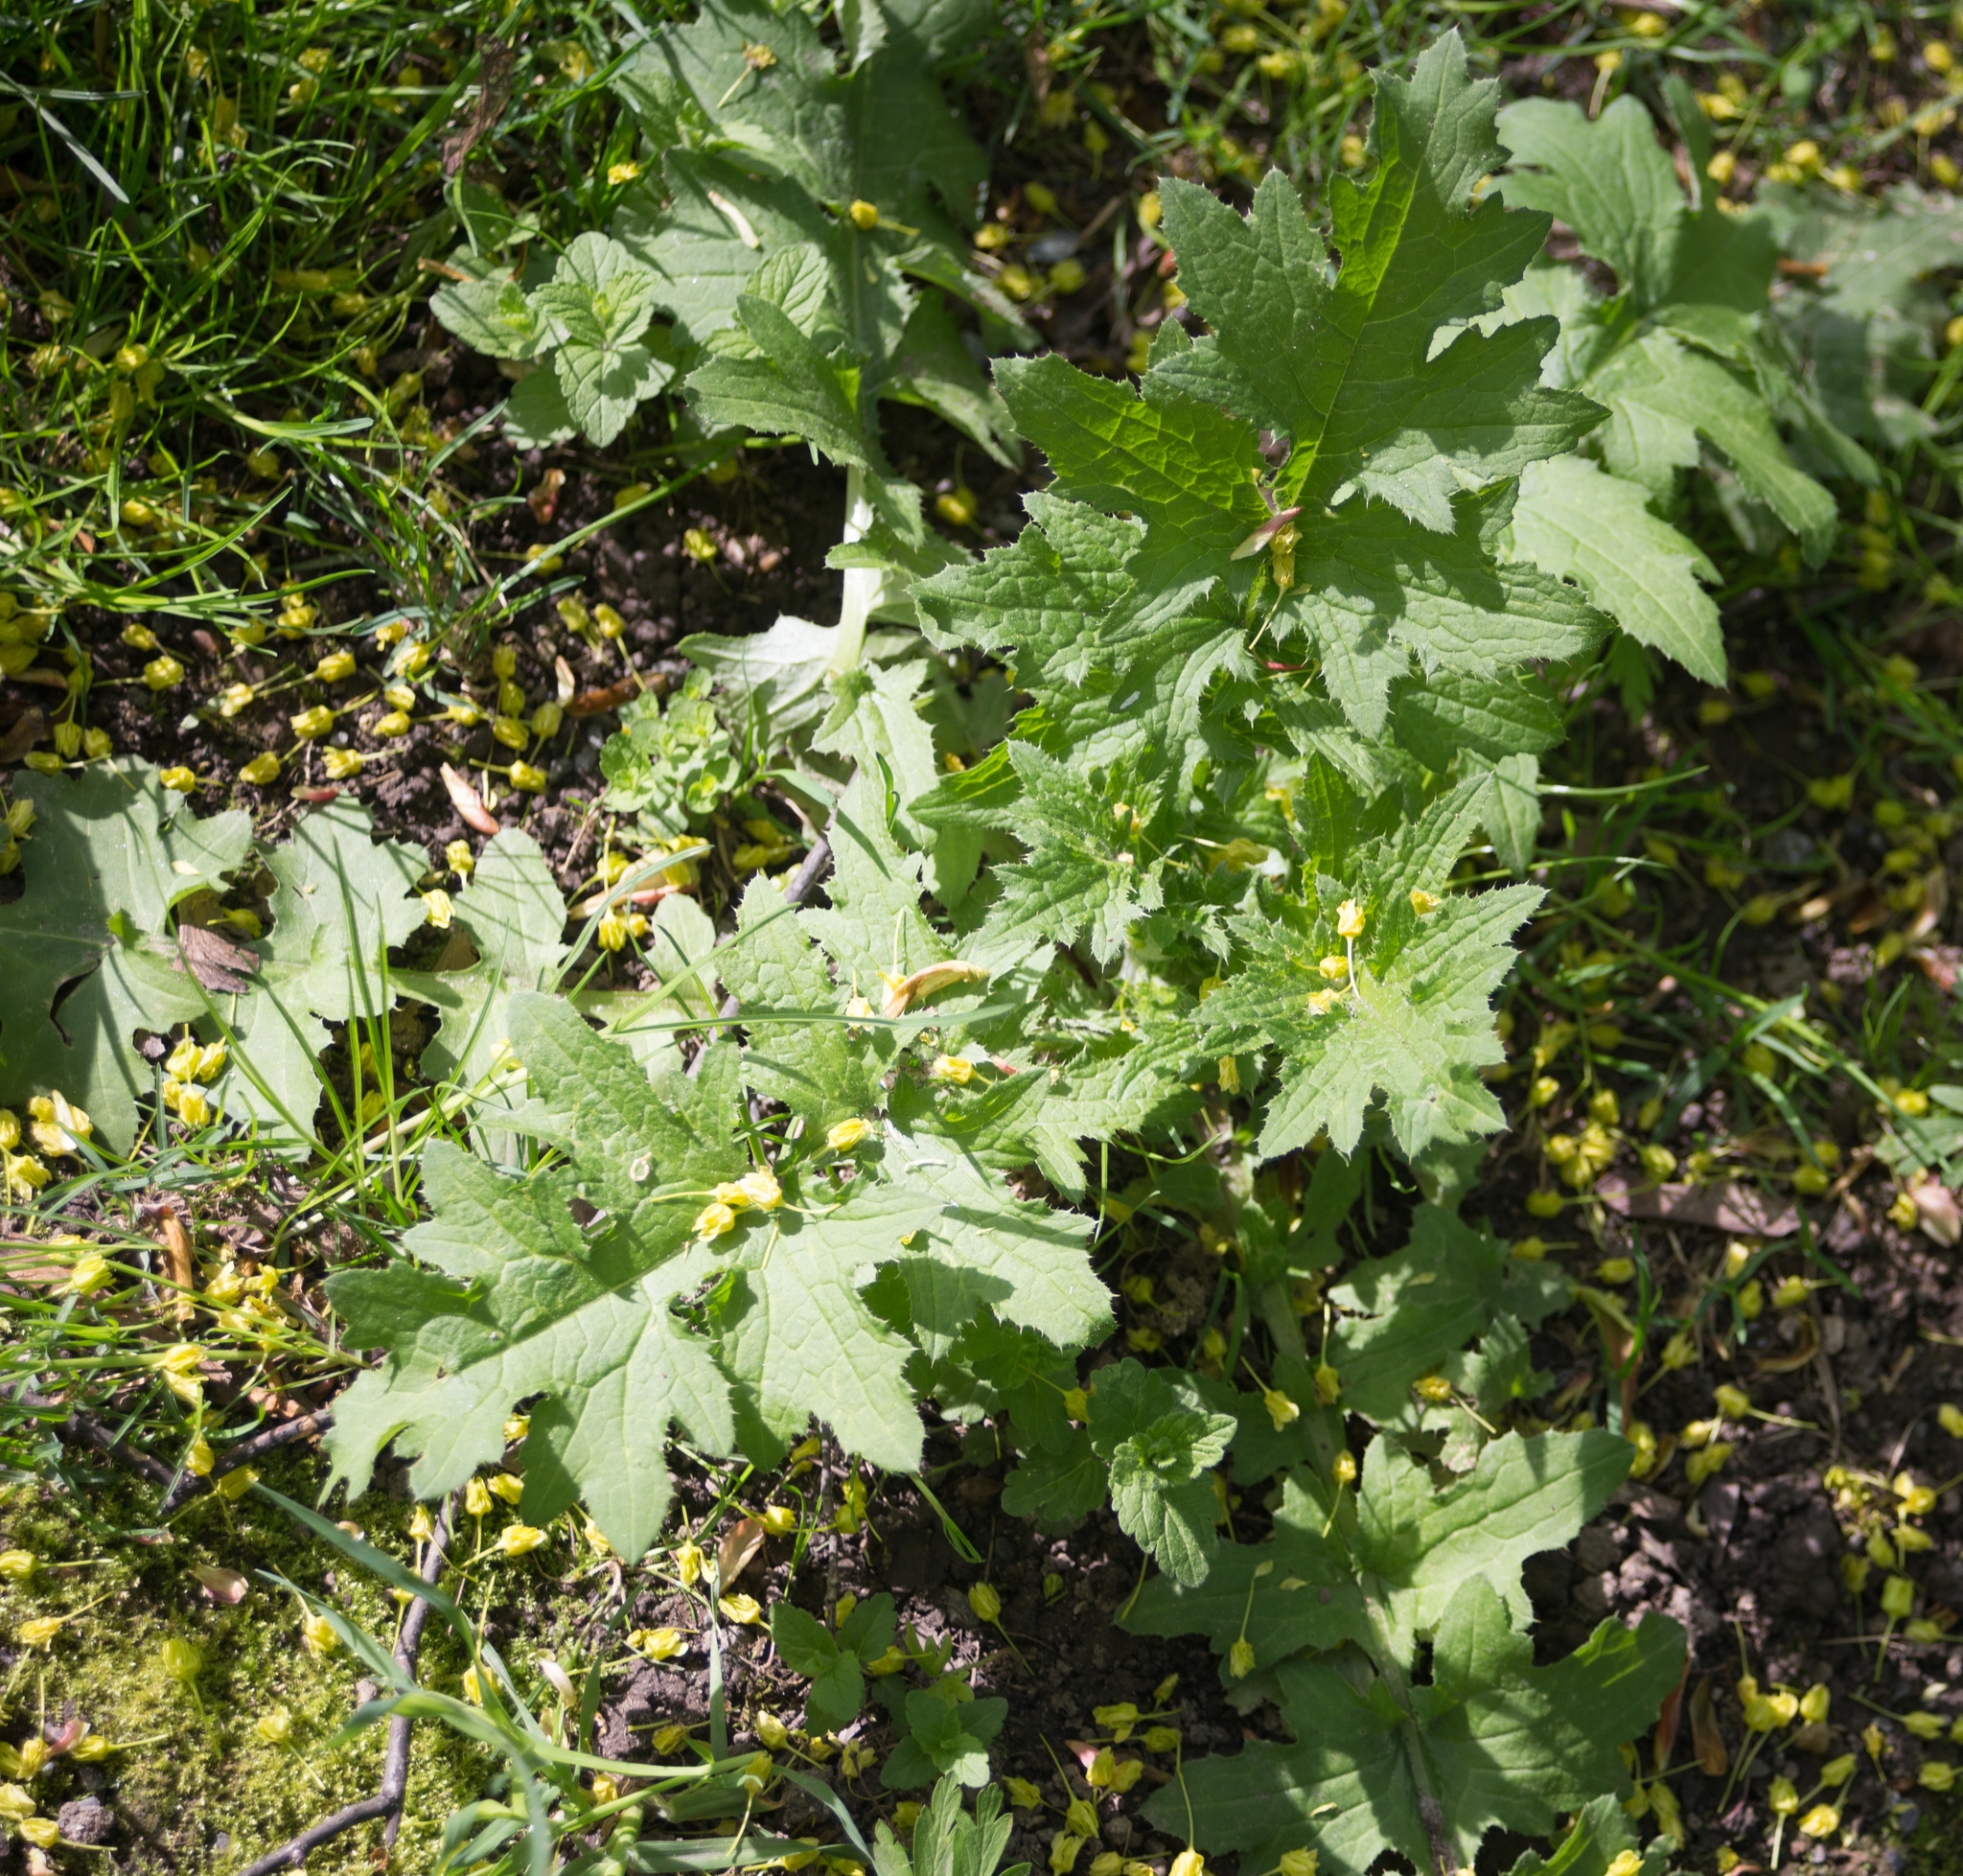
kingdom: Plantae
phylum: Tracheophyta
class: Magnoliopsida
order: Asterales
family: Asteraceae
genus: Carduus
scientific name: Carduus crispus
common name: Welted thistle
